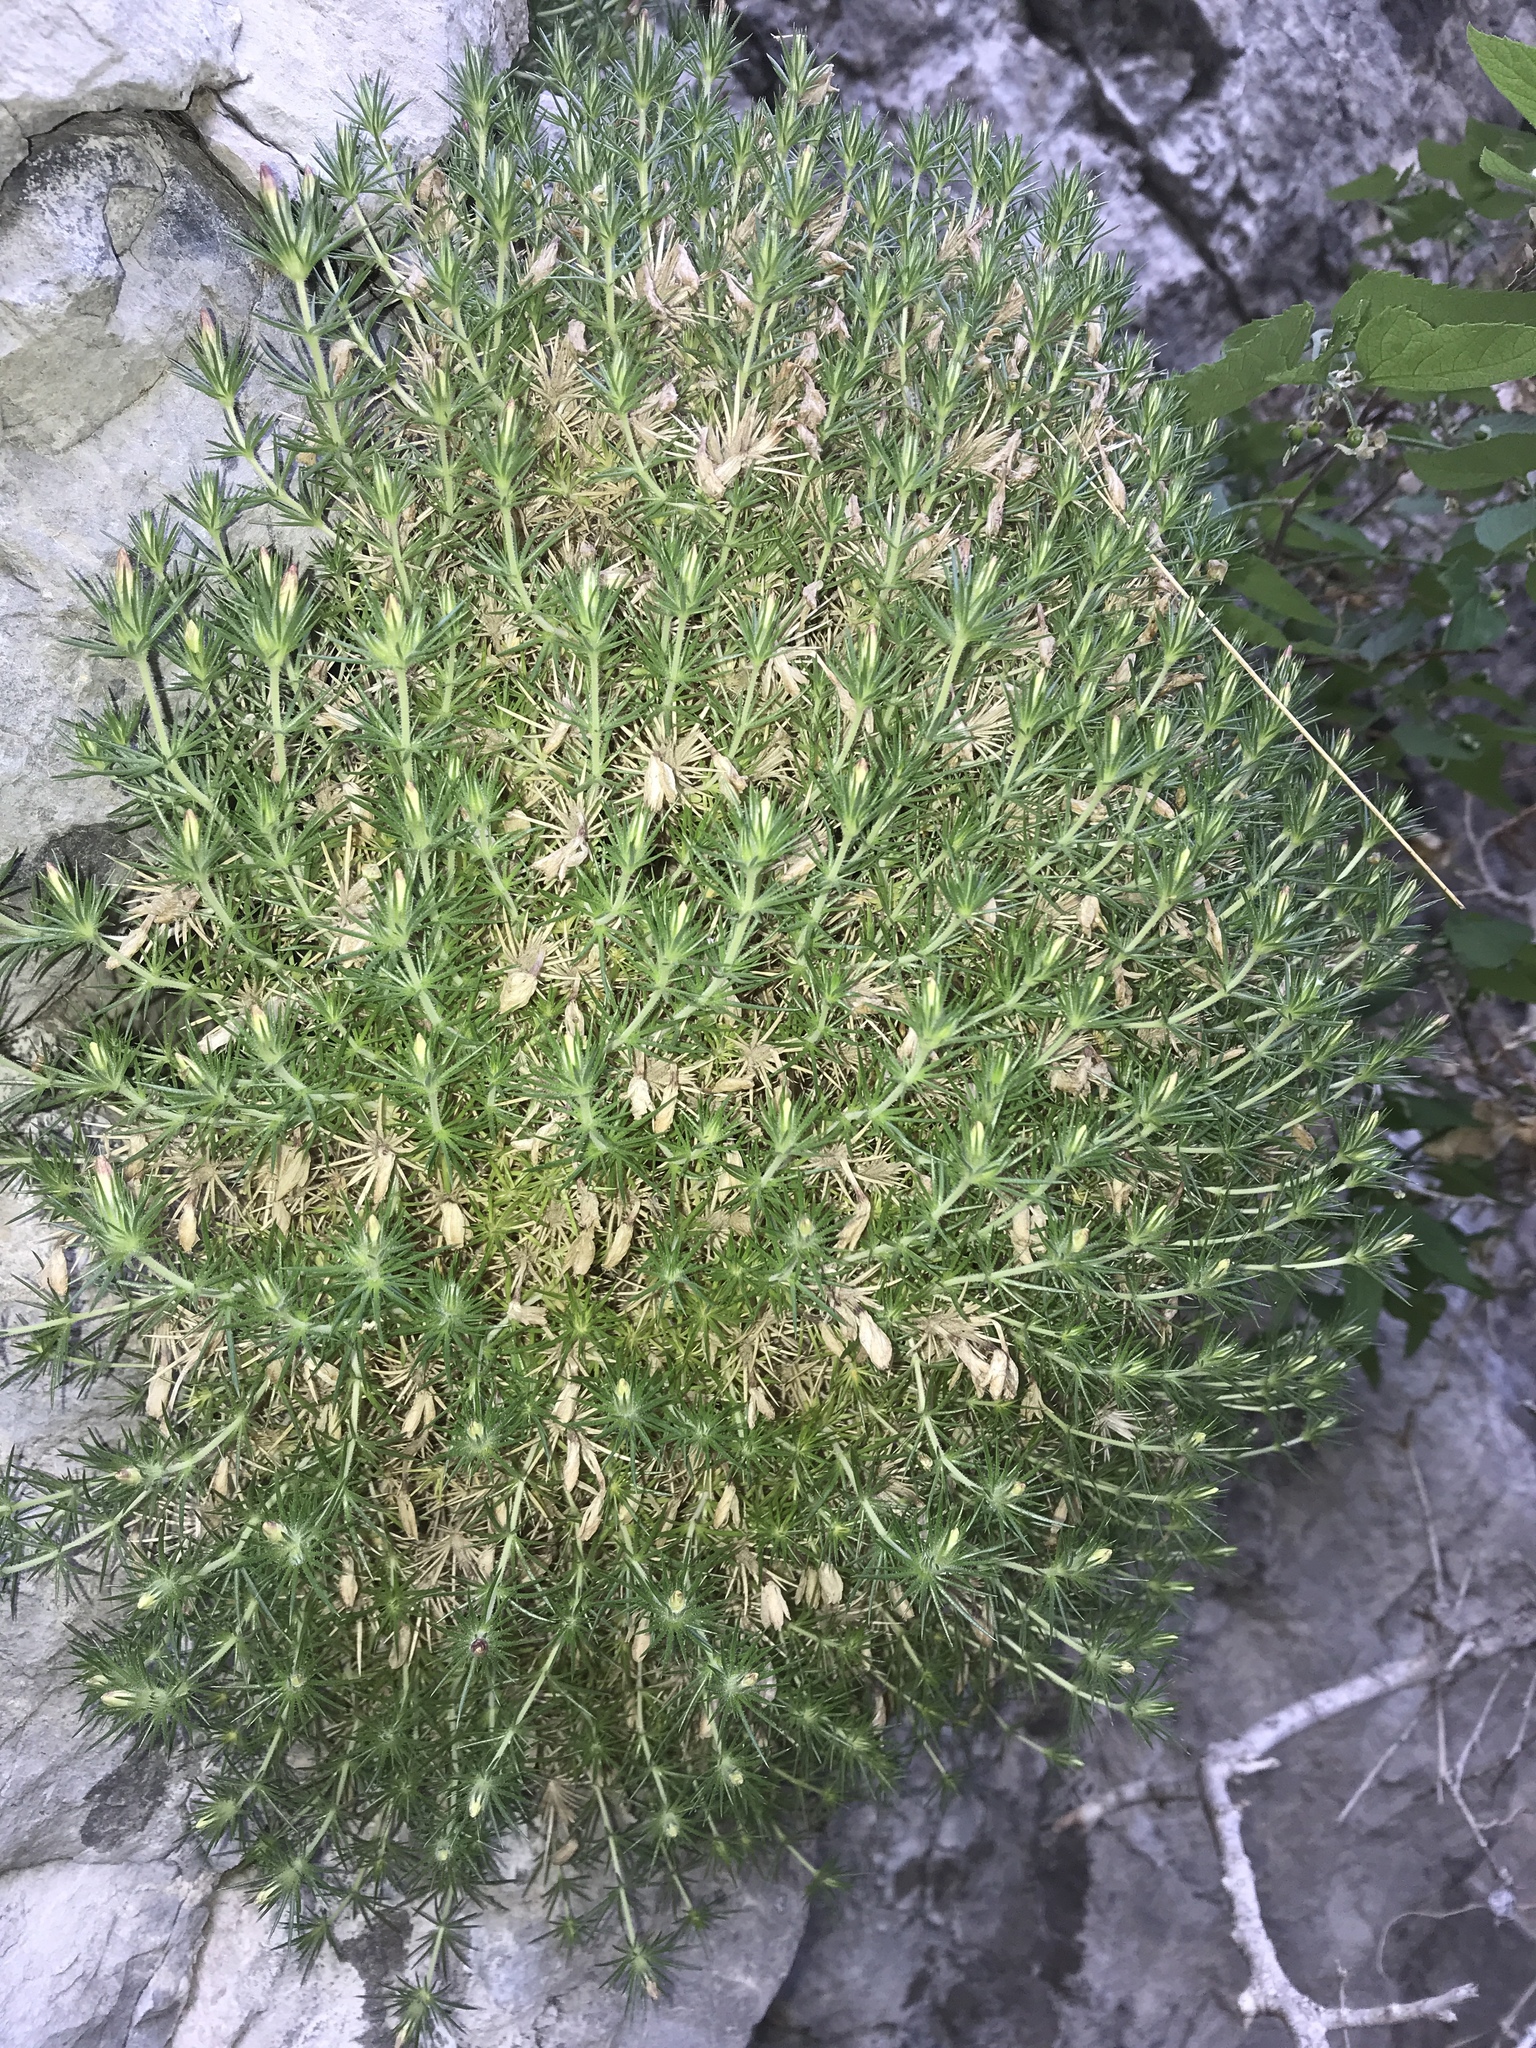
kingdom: Plantae
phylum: Tracheophyta
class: Magnoliopsida
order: Ericales
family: Polemoniaceae
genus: Linanthus
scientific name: Linanthus watsonii
